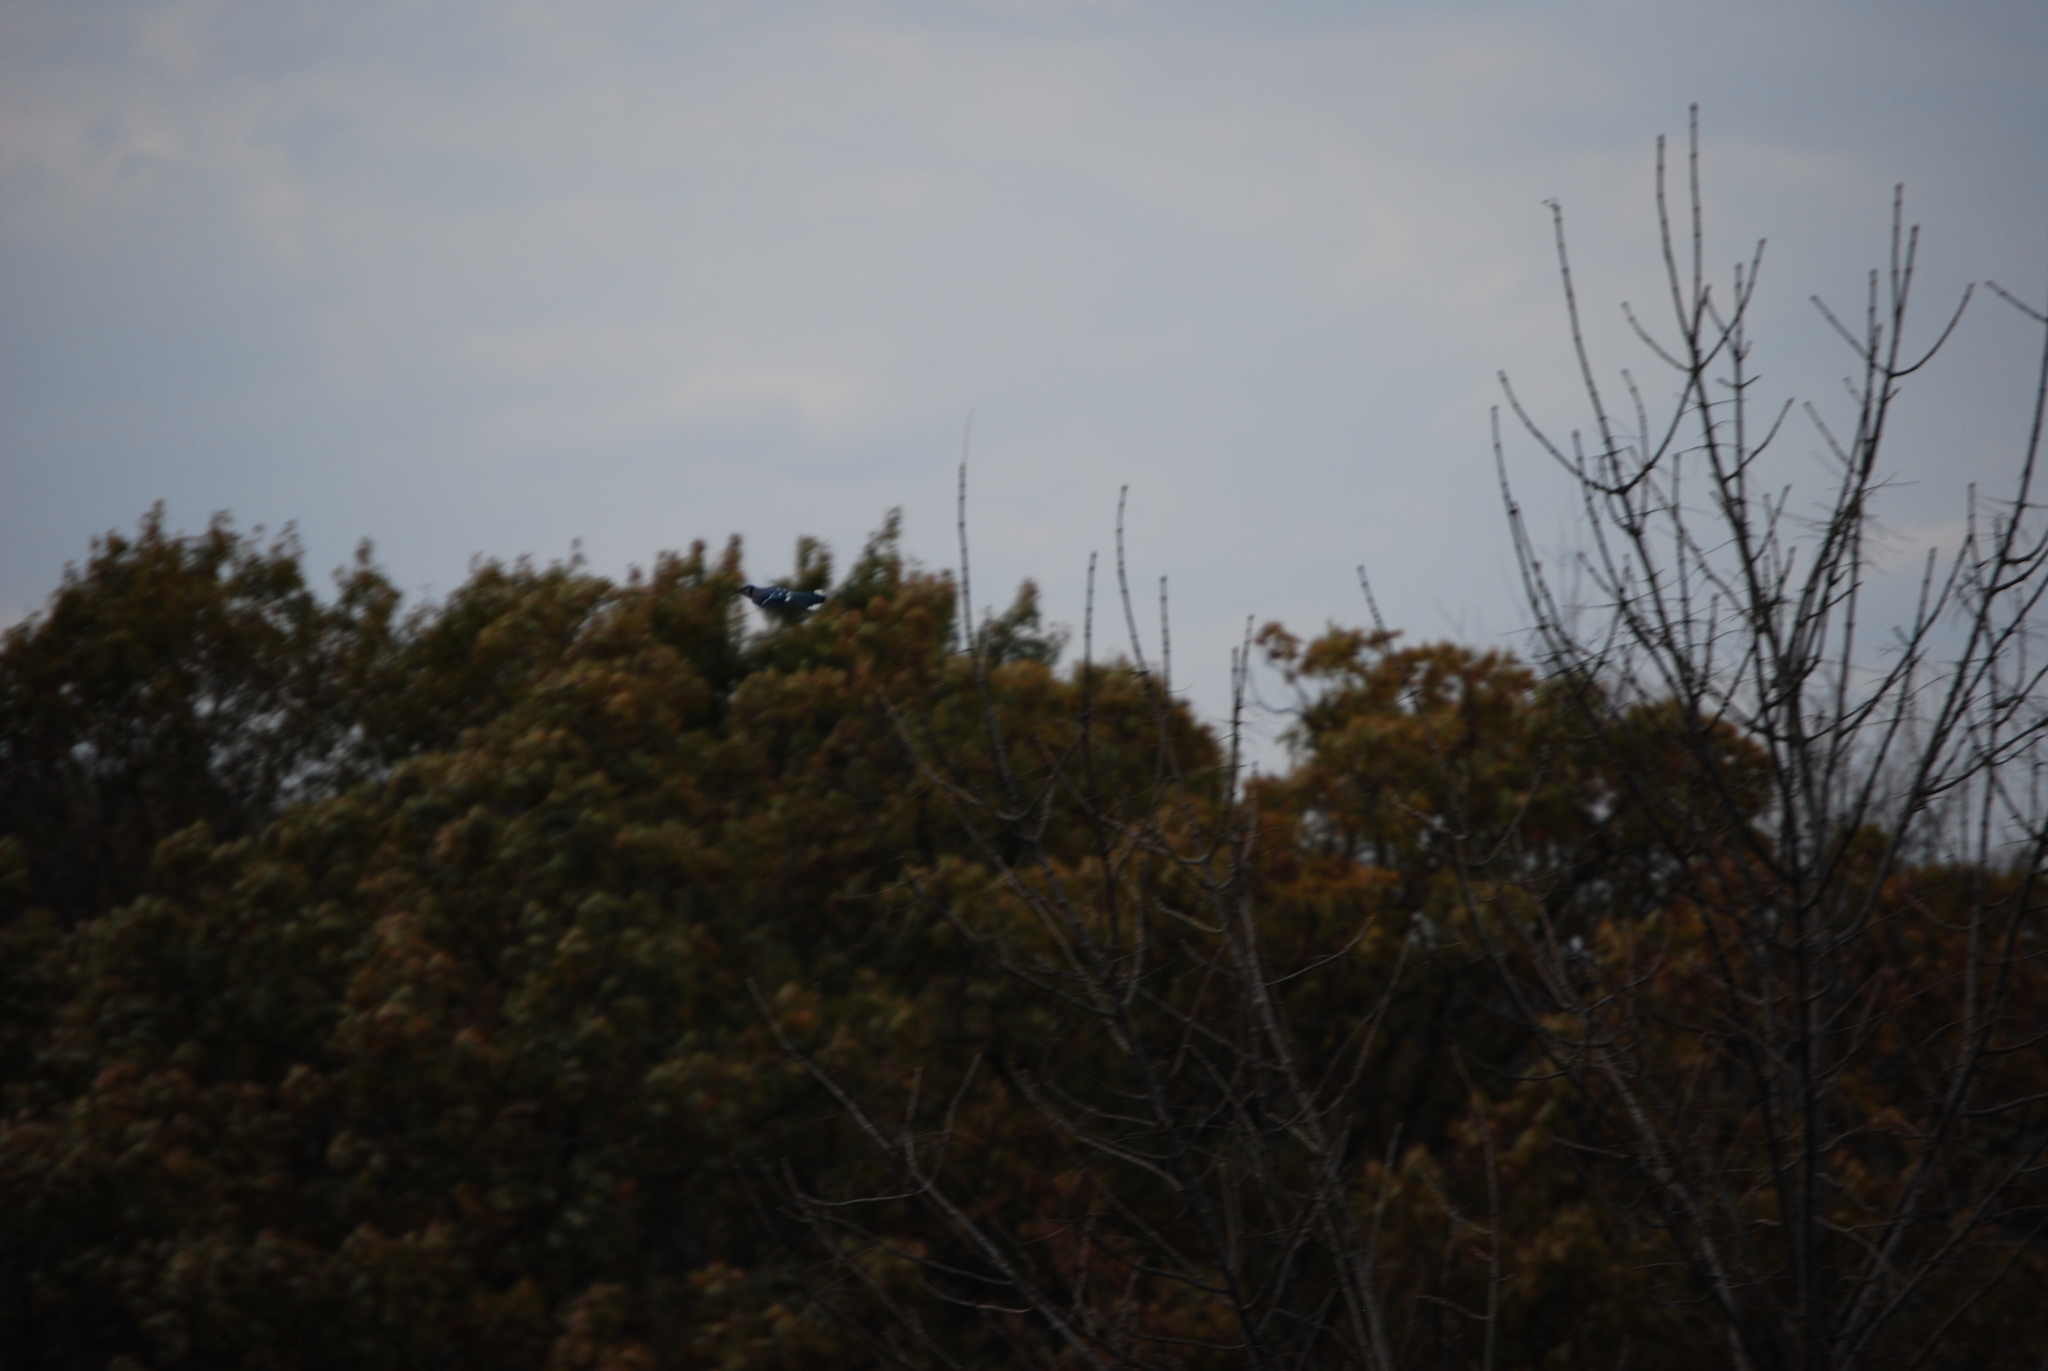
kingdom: Animalia
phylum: Chordata
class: Aves
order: Passeriformes
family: Corvidae
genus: Cyanocitta
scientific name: Cyanocitta cristata
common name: Blue jay
